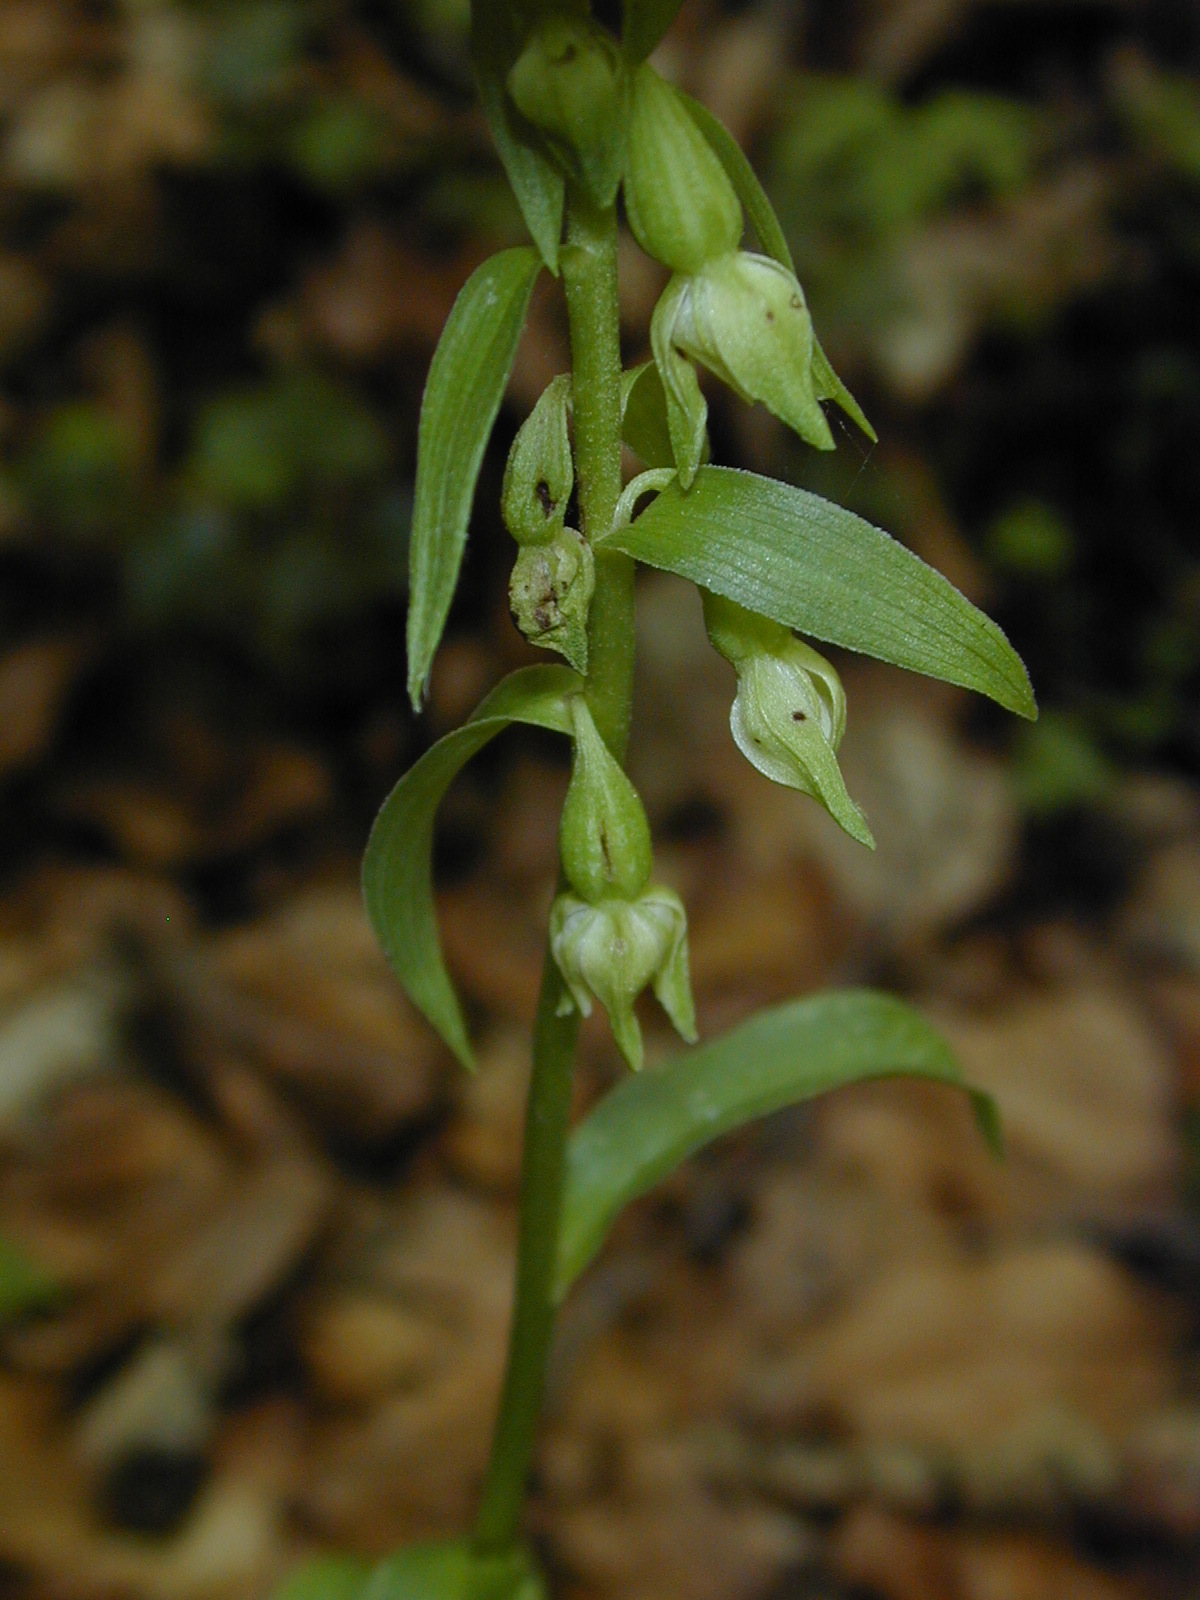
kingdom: Plantae
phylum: Tracheophyta
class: Liliopsida
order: Asparagales
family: Orchidaceae
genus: Epipactis
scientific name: Epipactis phyllanthes
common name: Green-flowered helleborine
